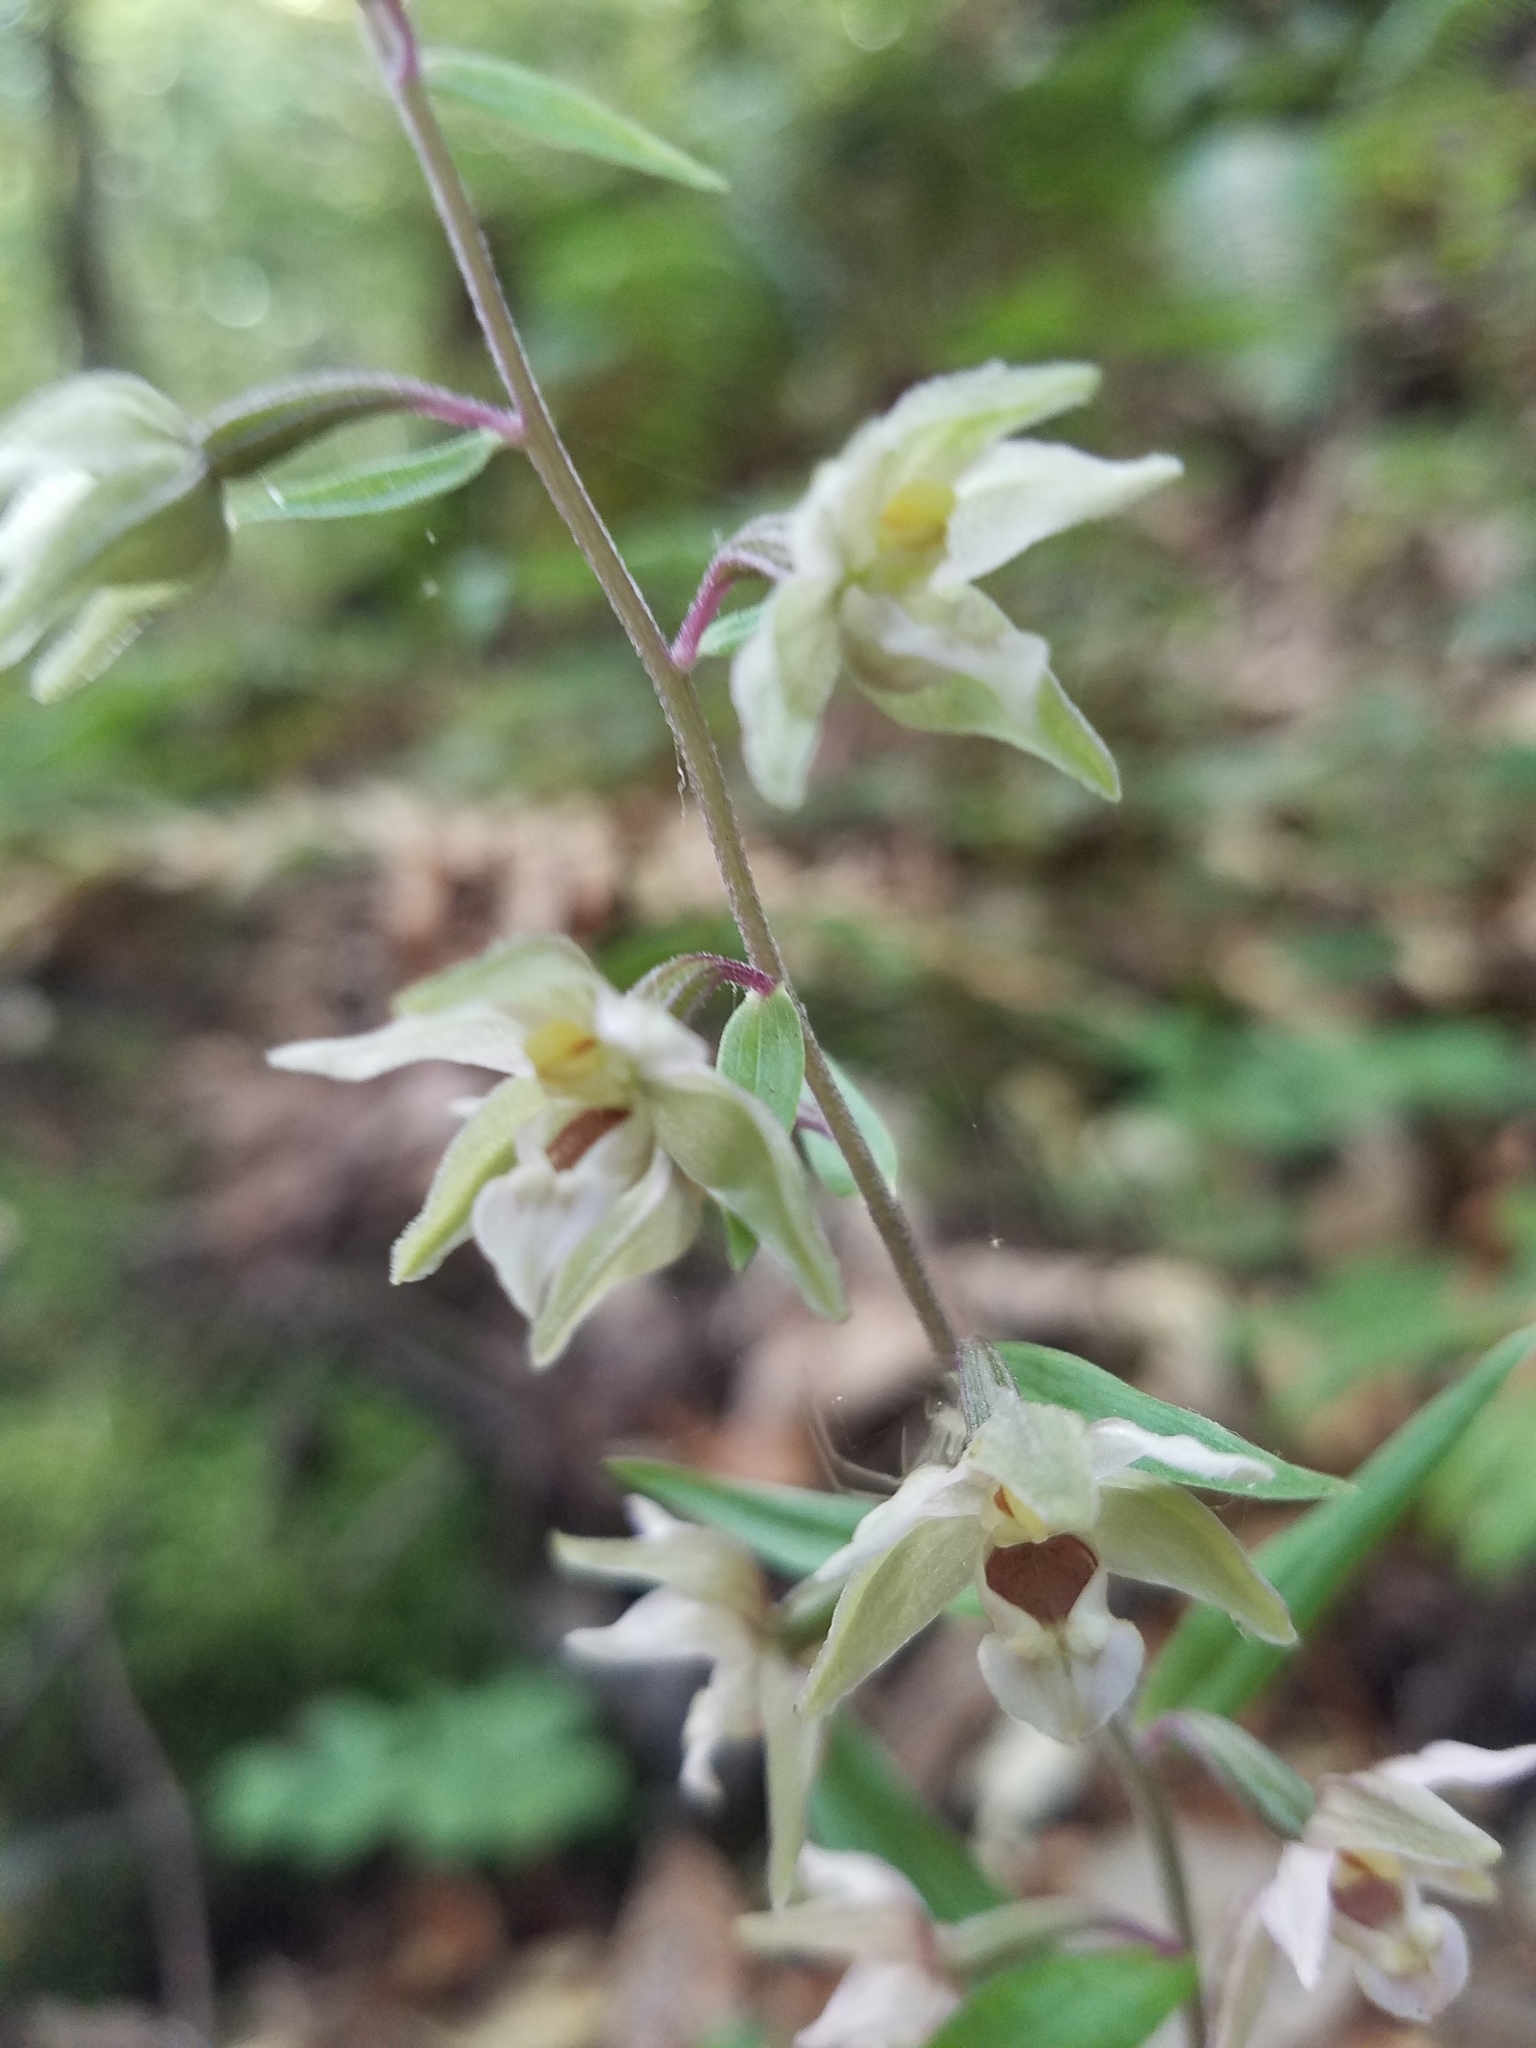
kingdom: Plantae
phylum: Tracheophyta
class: Liliopsida
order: Asparagales
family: Orchidaceae
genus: Epipactis
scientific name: Epipactis helleborine
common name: Broad-leaved helleborine
